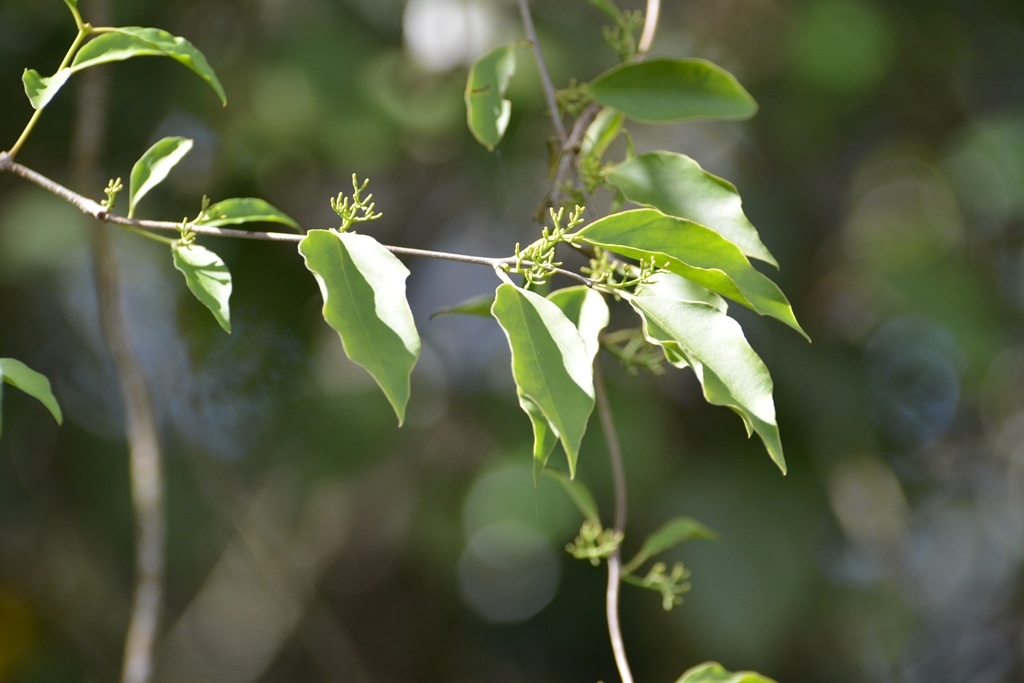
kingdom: Plantae
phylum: Tracheophyta
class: Magnoliopsida
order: Santalales
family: Loranthaceae
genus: Struthanthus
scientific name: Struthanthus quercicola
